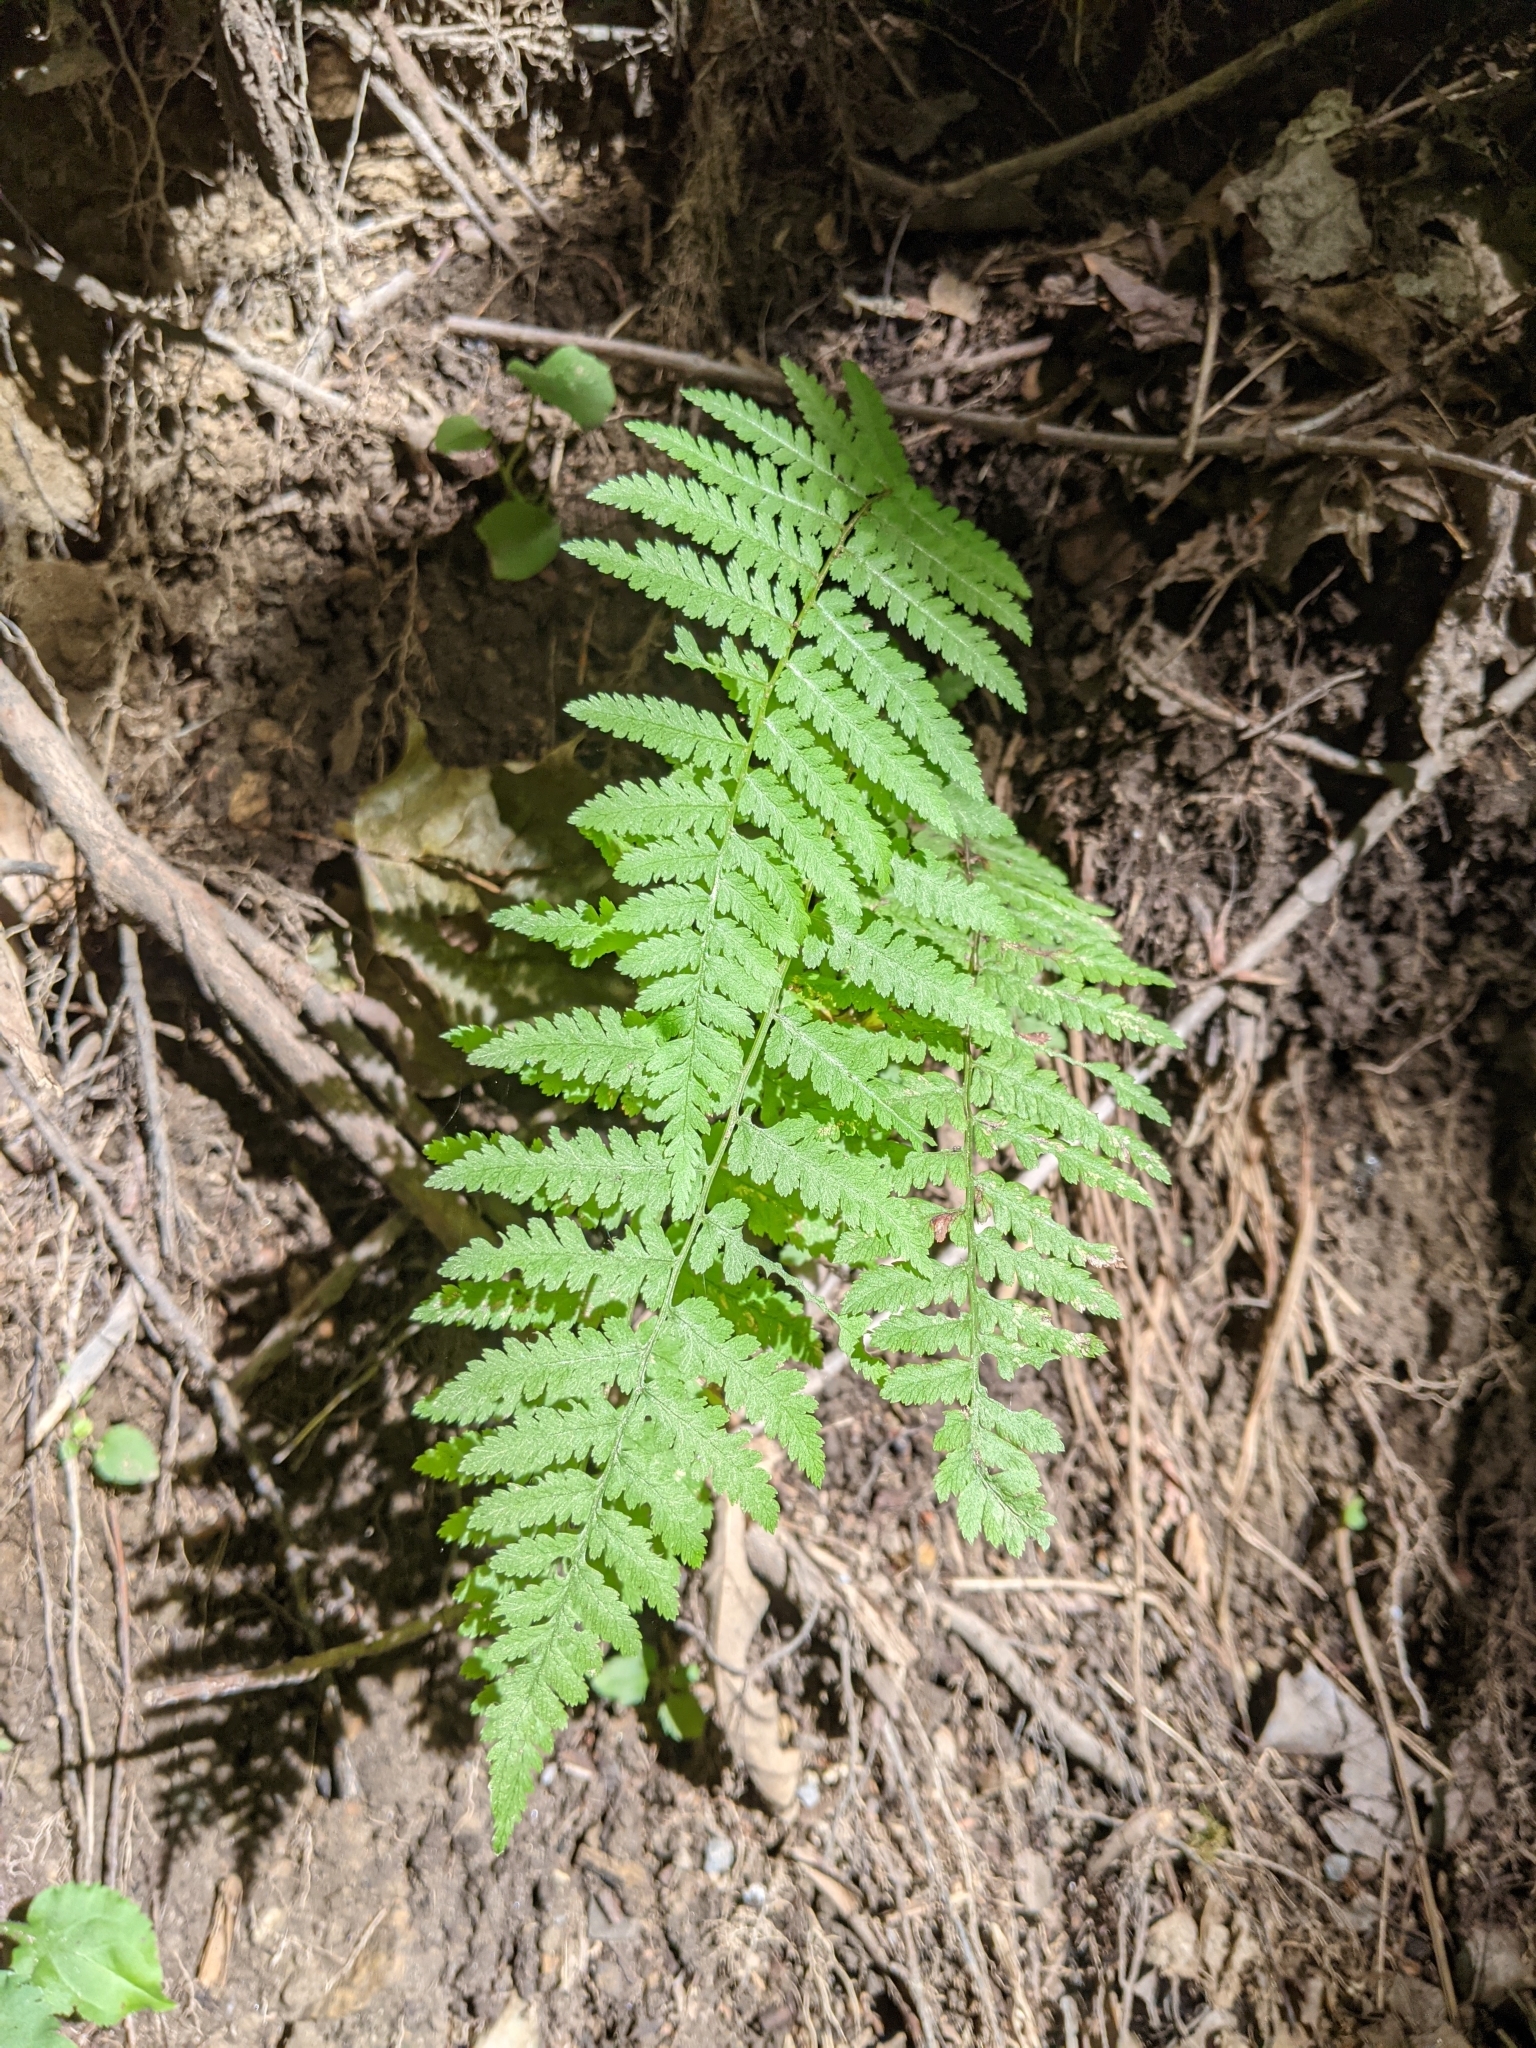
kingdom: Plantae
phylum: Tracheophyta
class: Polypodiopsida
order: Polypodiales
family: Athyriaceae
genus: Athyrium
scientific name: Athyrium angustum
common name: Northern lady fern
